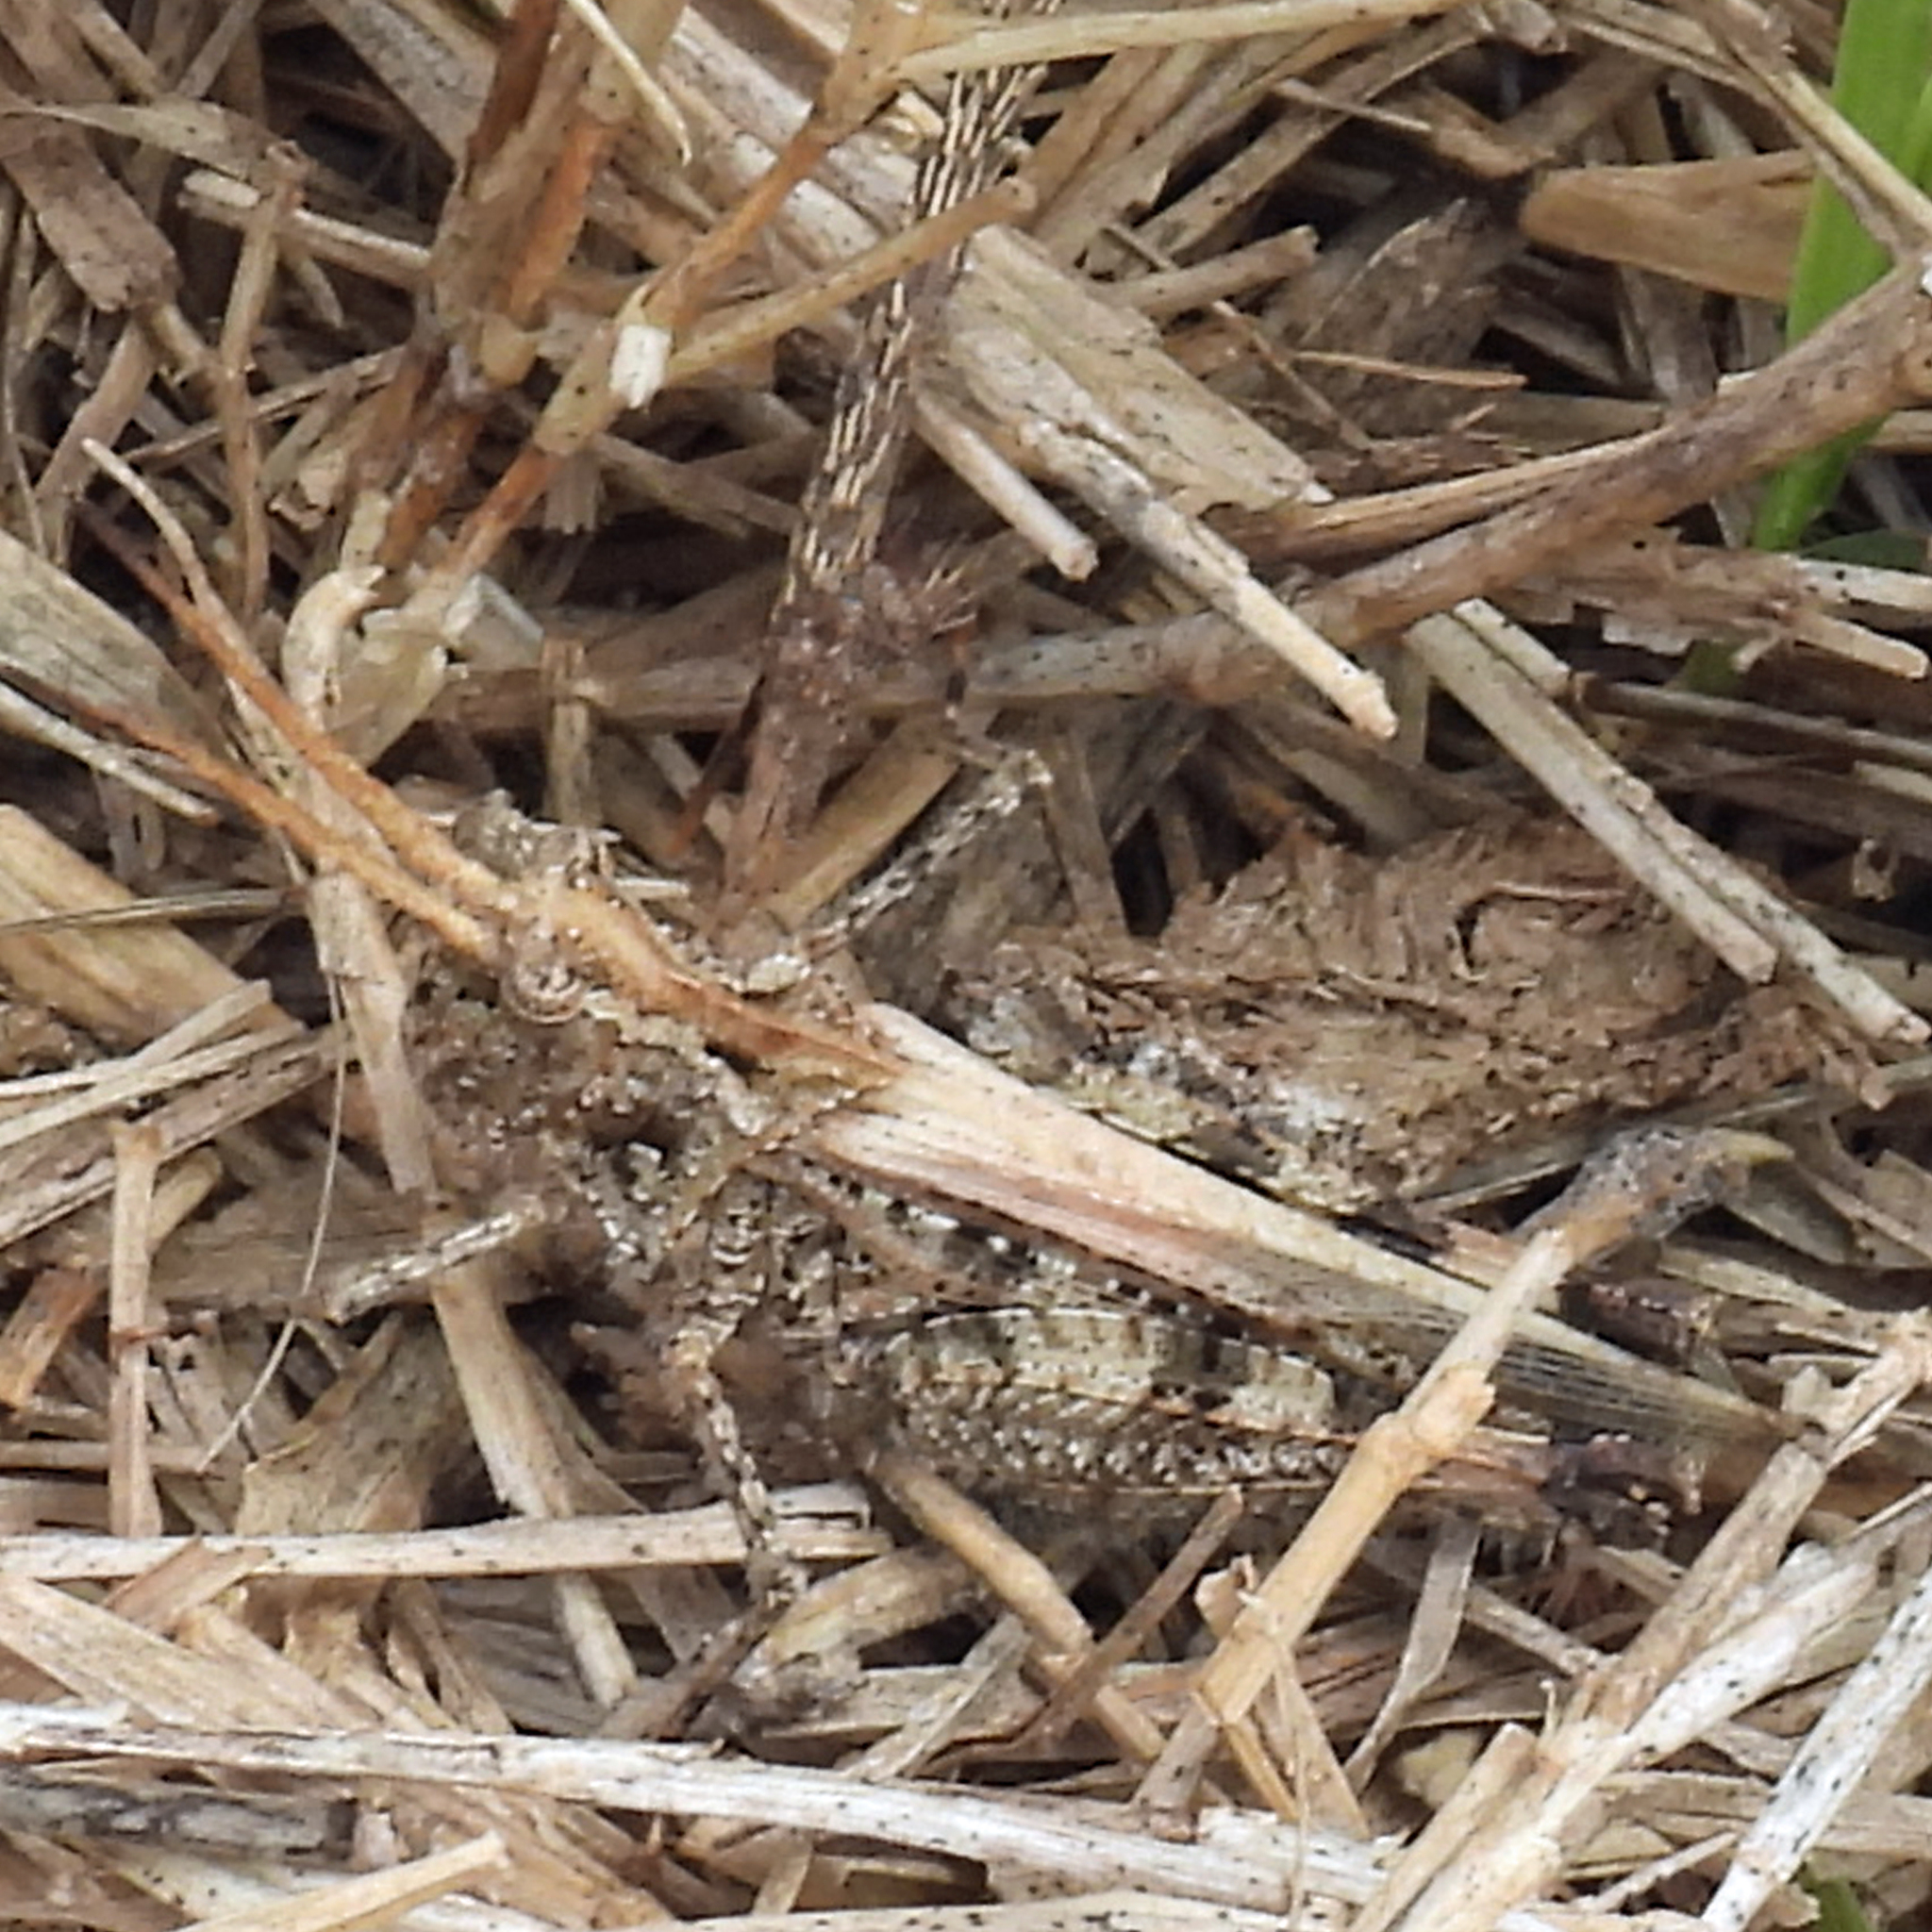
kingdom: Animalia
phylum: Arthropoda
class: Insecta
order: Orthoptera
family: Acrididae
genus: Psinidia
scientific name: Psinidia amplicornus
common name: Caudell's longhorn grasshopper
